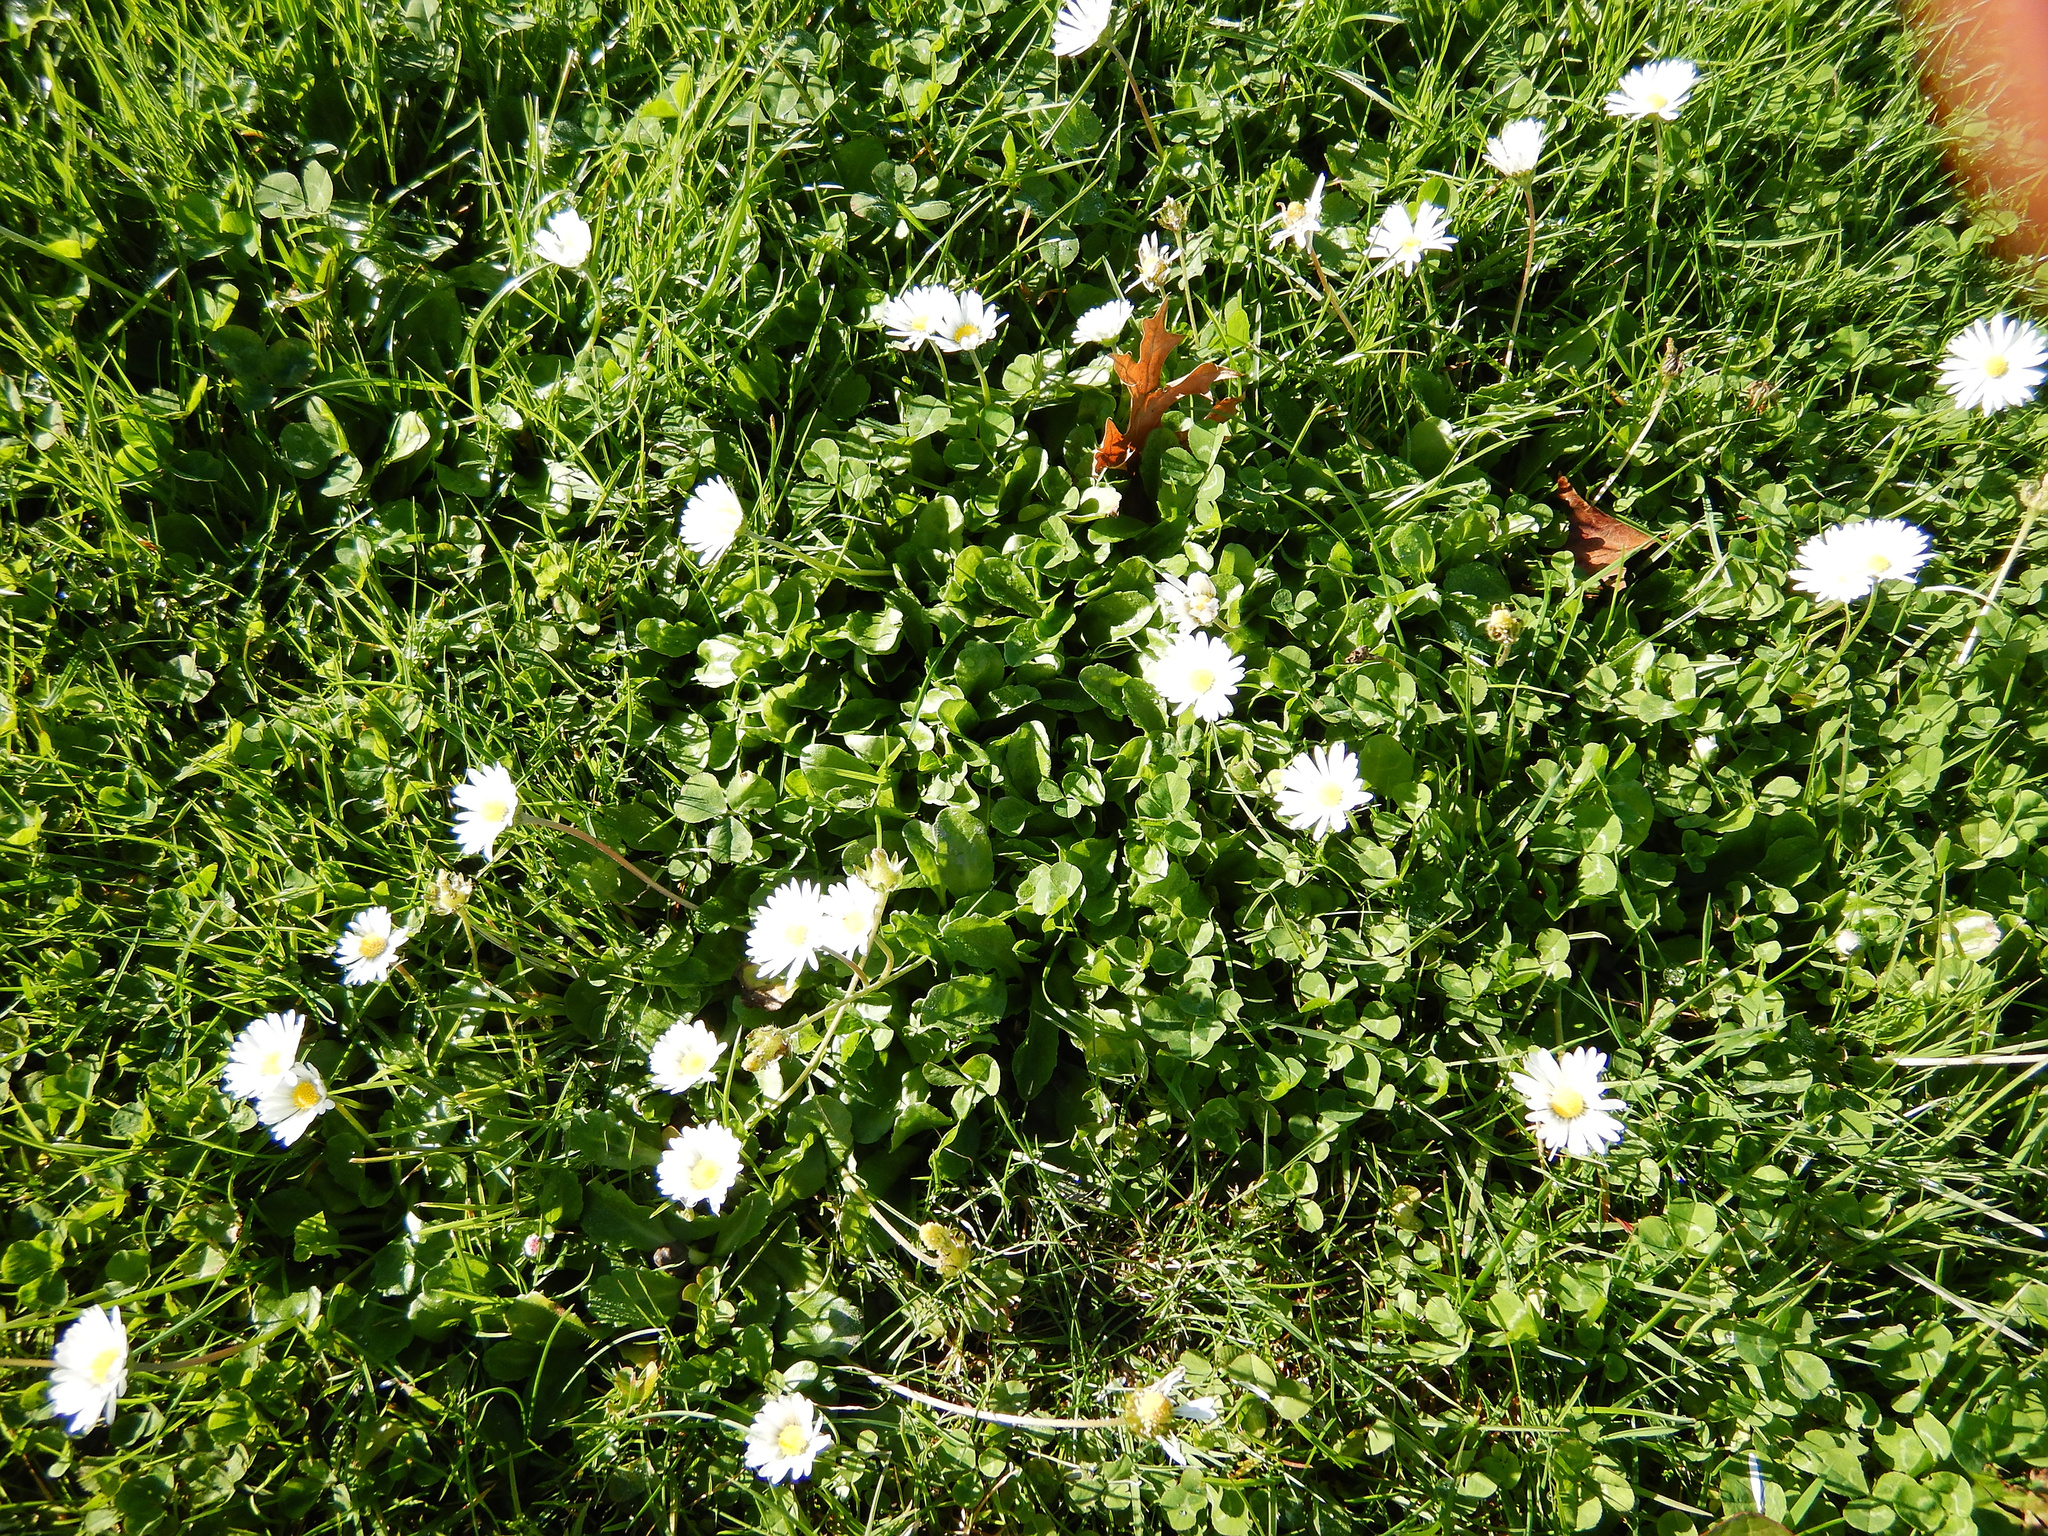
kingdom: Plantae
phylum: Tracheophyta
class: Magnoliopsida
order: Asterales
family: Asteraceae
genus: Bellis
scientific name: Bellis perennis
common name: Lawndaisy
